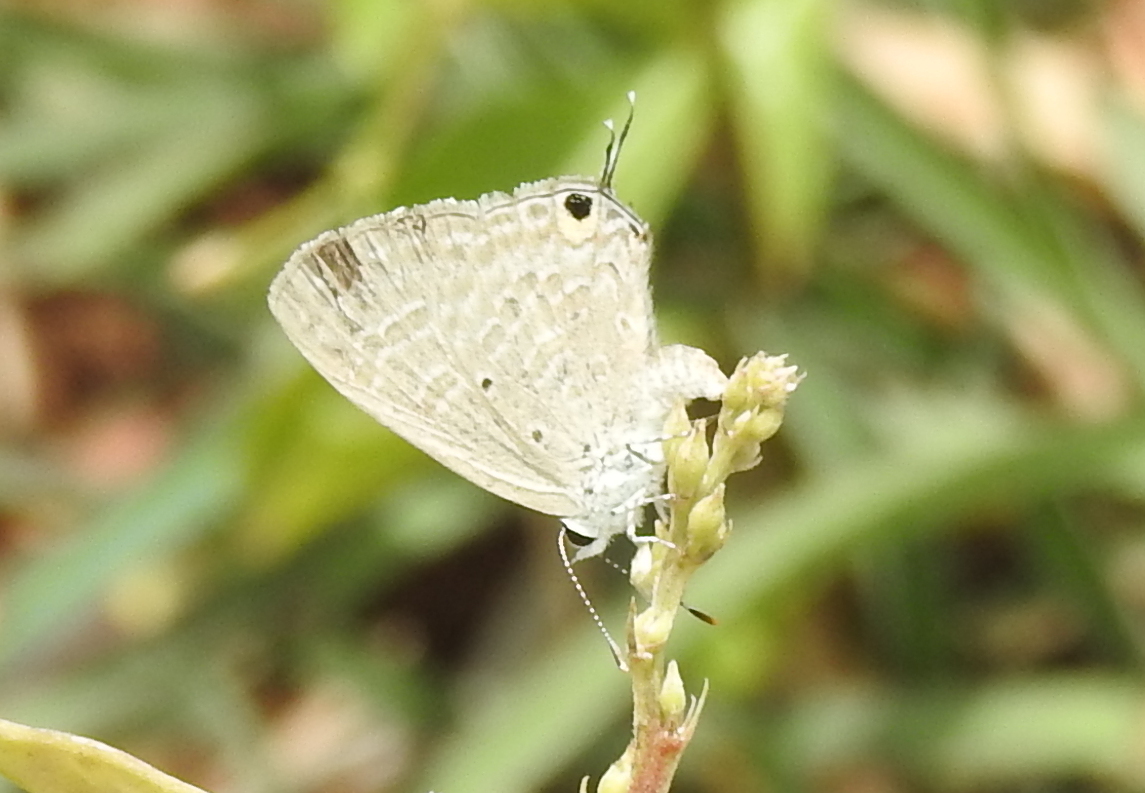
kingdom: Animalia
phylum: Arthropoda
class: Insecta
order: Lepidoptera
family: Lycaenidae
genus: Catochrysops
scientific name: Catochrysops strabo
